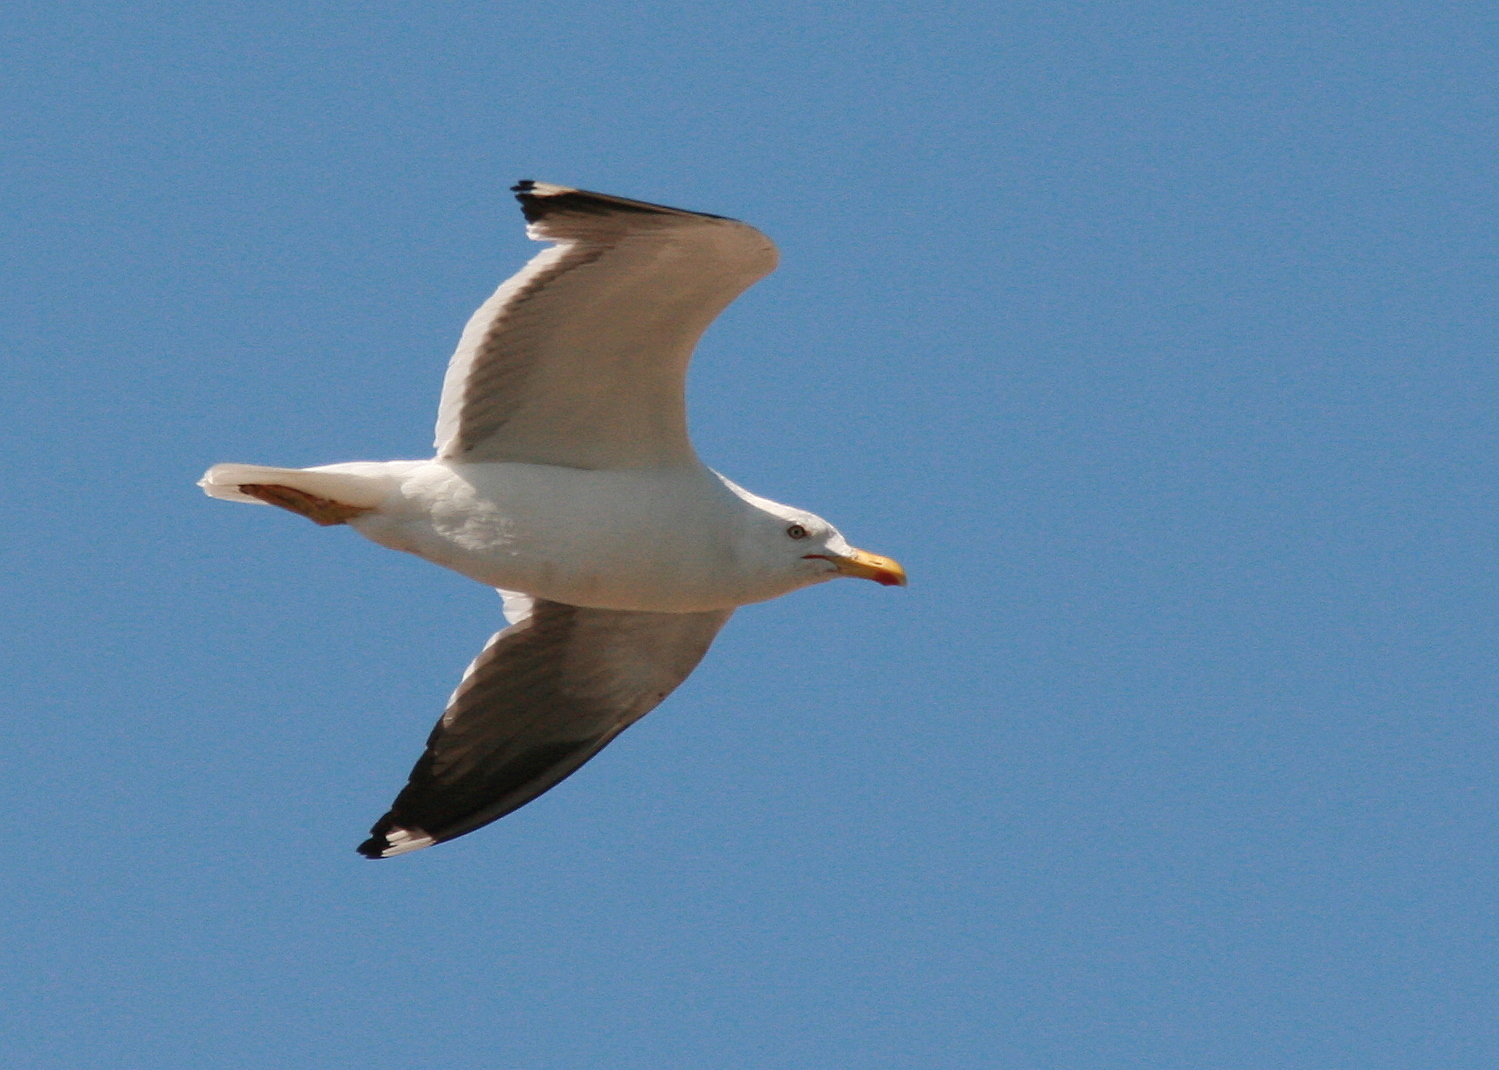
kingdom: Animalia
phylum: Chordata
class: Aves
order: Charadriiformes
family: Laridae
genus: Larus
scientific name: Larus fuscus
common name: Lesser black-backed gull
